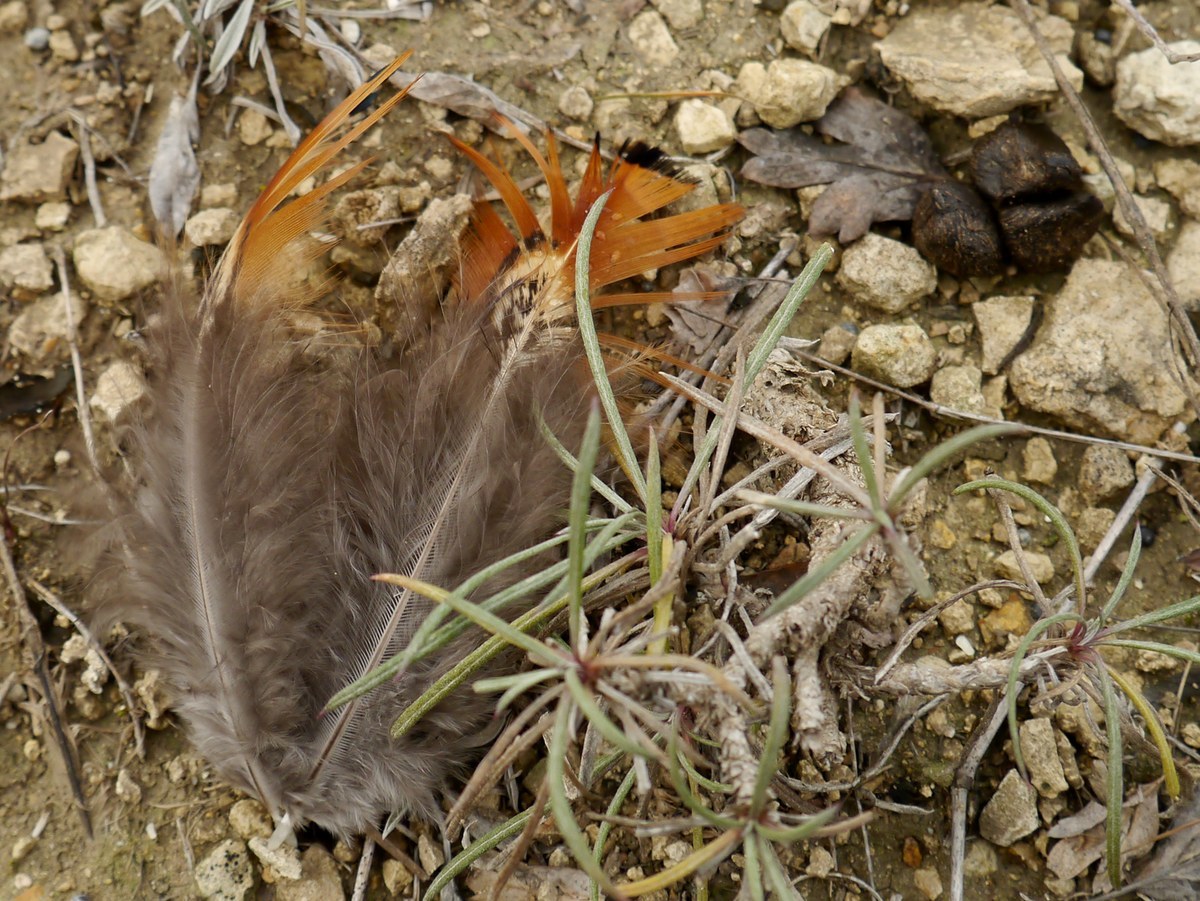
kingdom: Animalia
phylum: Chordata
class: Aves
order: Galliformes
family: Phasianidae
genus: Phasianus
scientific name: Phasianus colchicus
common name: Common pheasant
